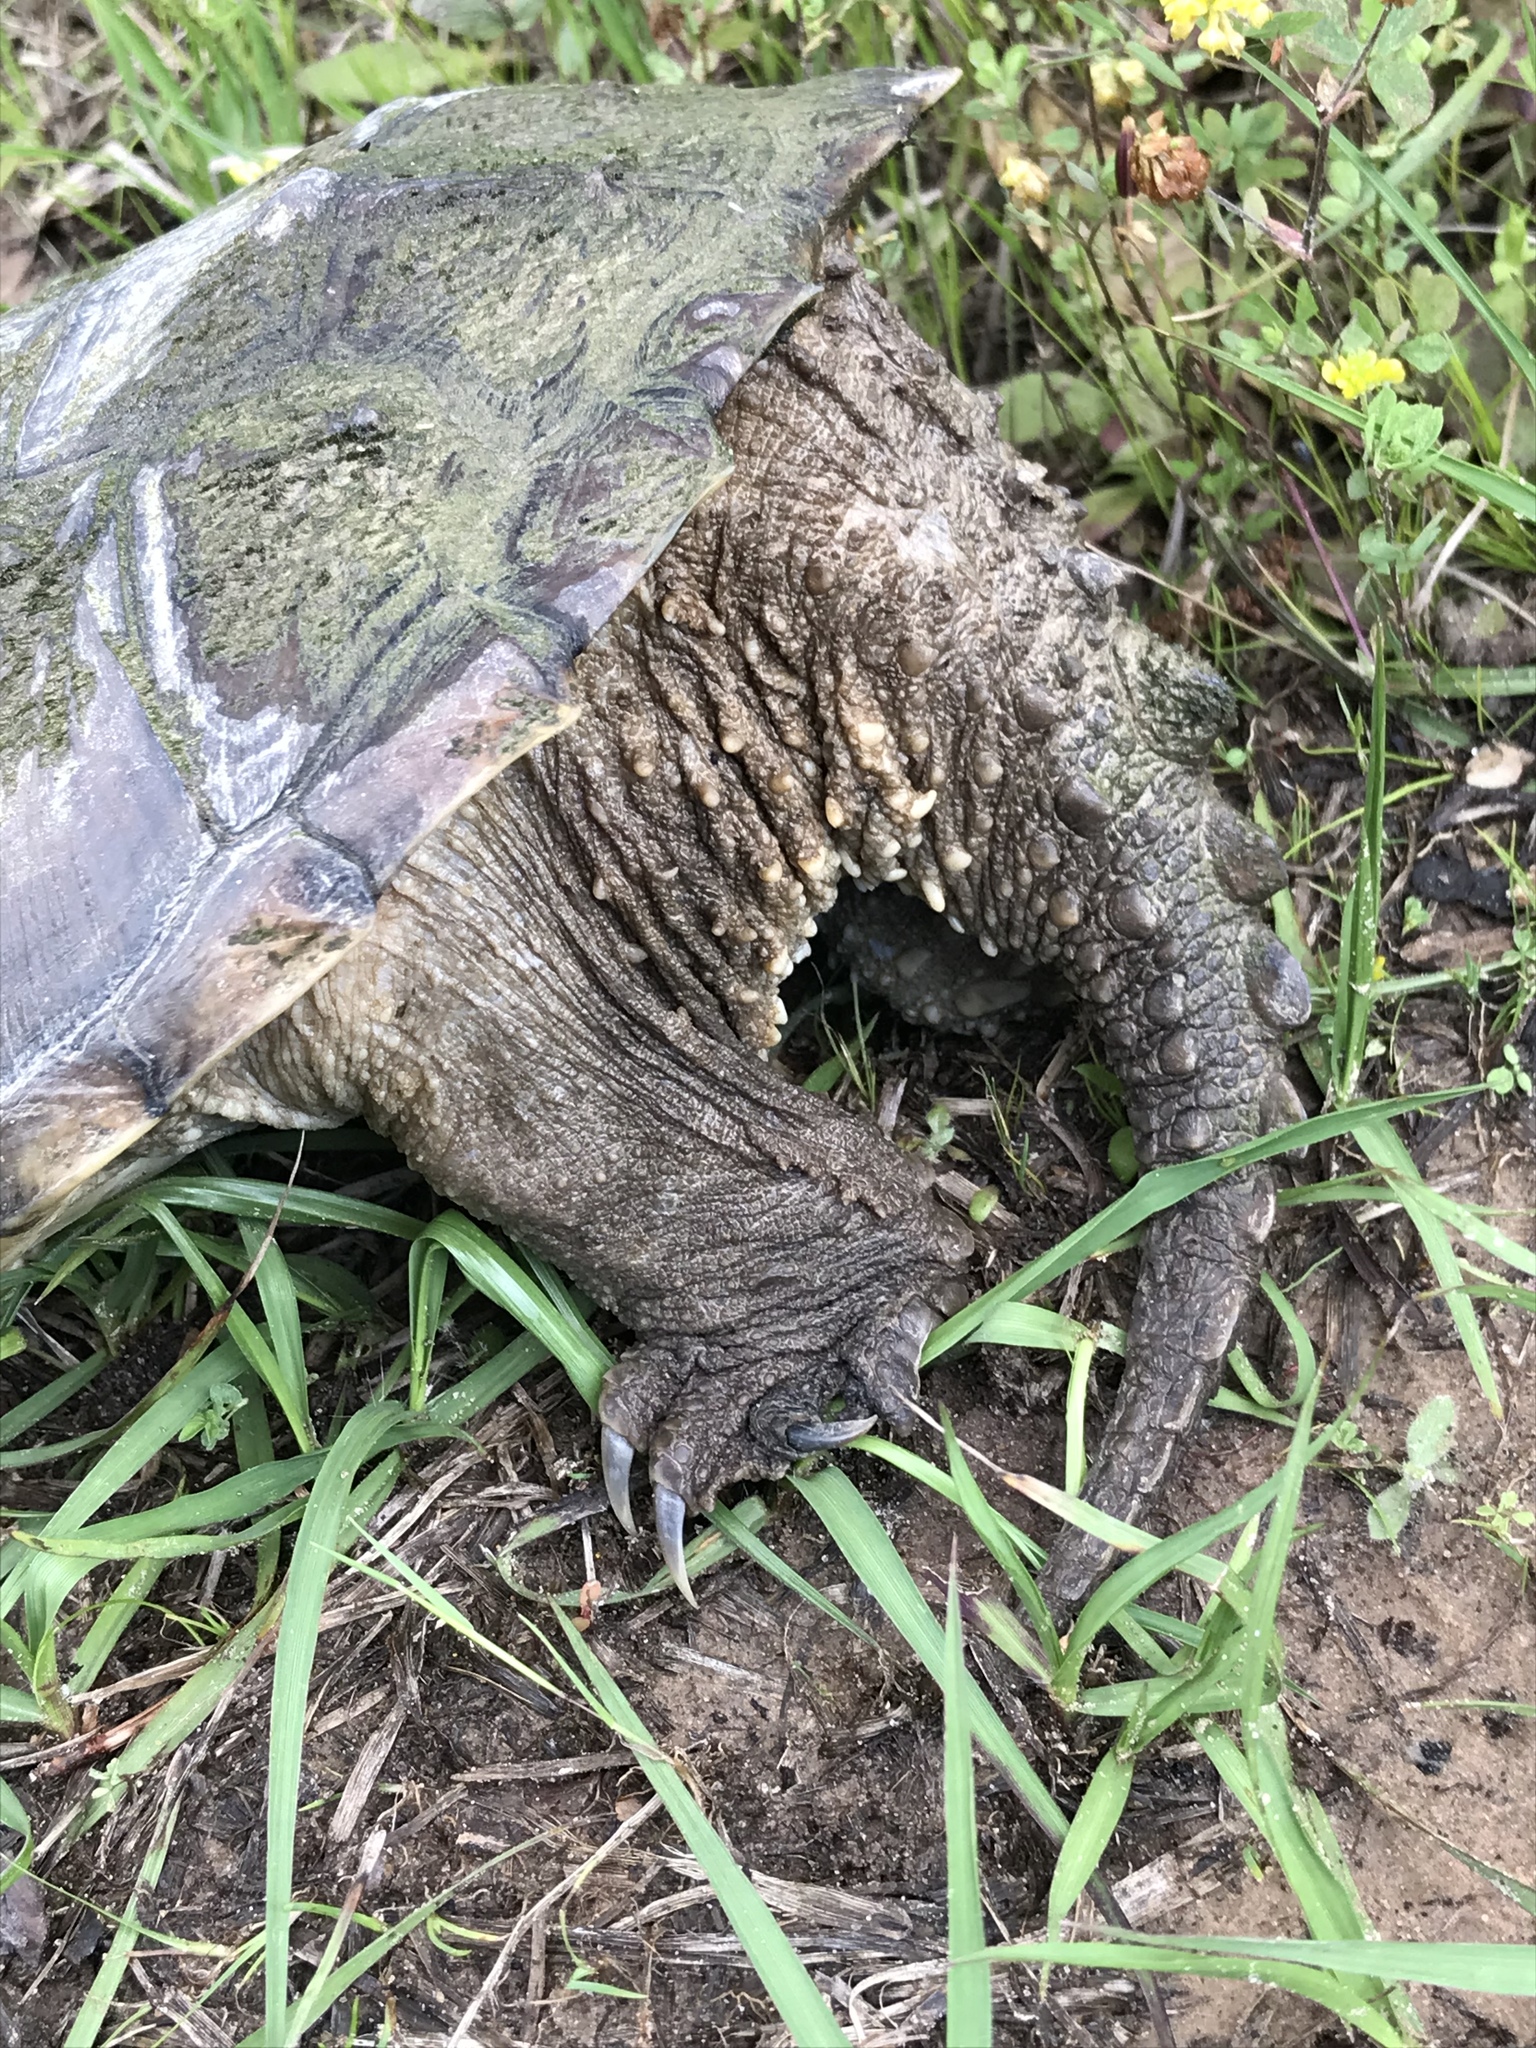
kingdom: Animalia
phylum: Chordata
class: Testudines
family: Chelydridae
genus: Chelydra
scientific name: Chelydra serpentina
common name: Common snapping turtle
